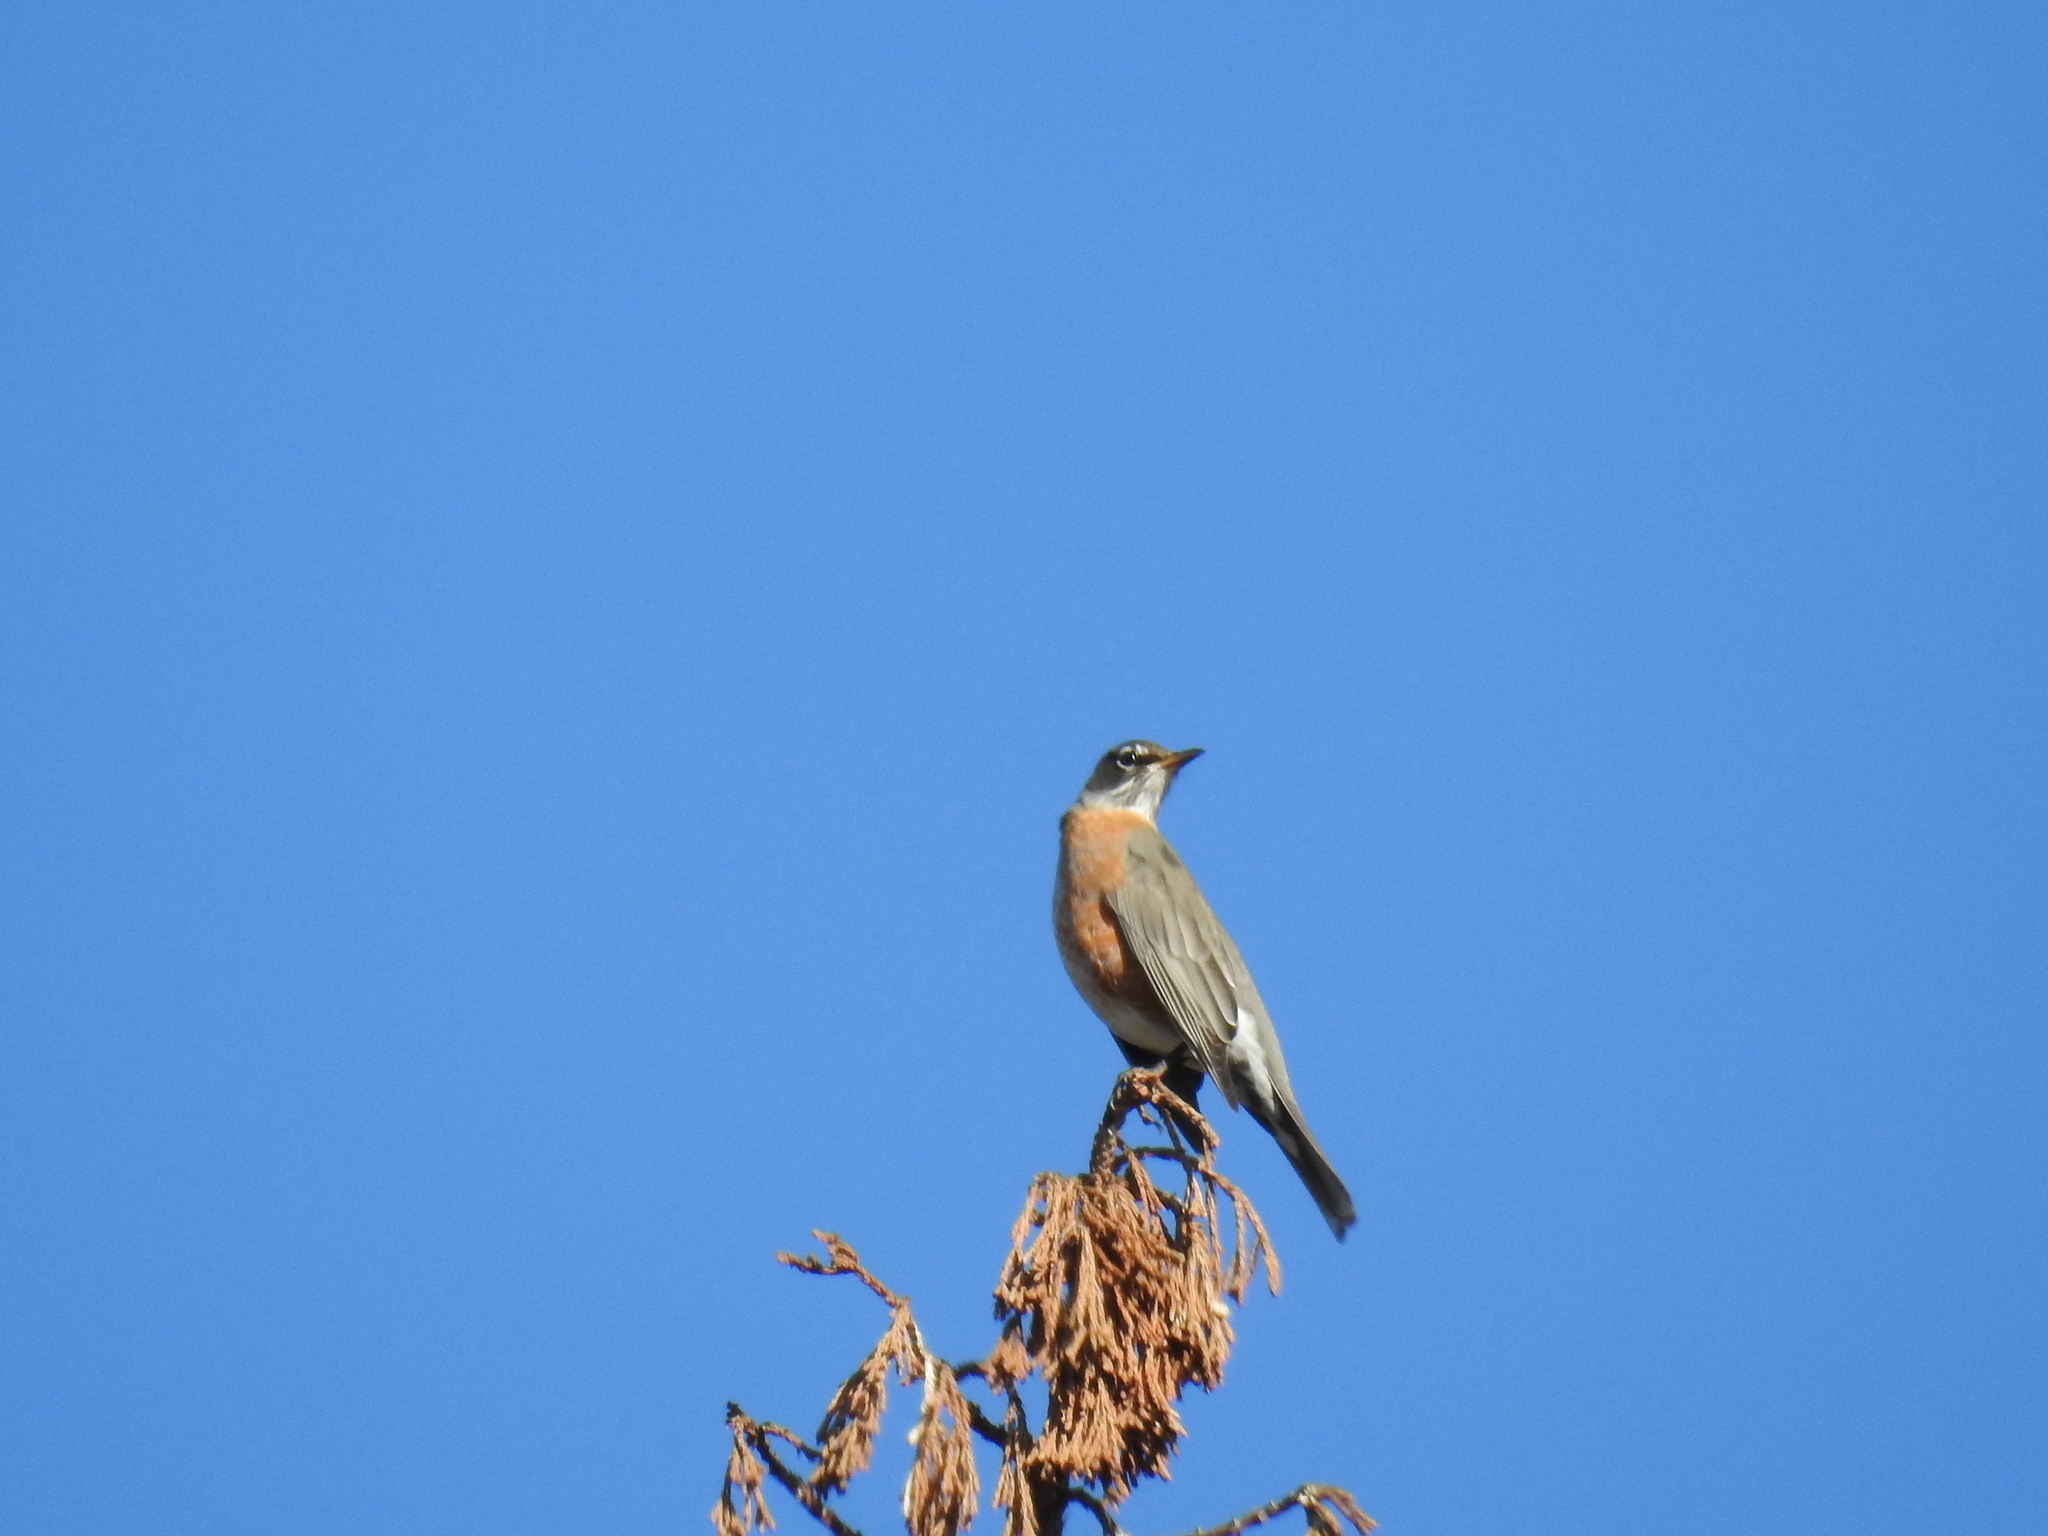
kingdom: Animalia
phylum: Chordata
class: Aves
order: Passeriformes
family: Turdidae
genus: Turdus
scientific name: Turdus migratorius
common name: American robin
